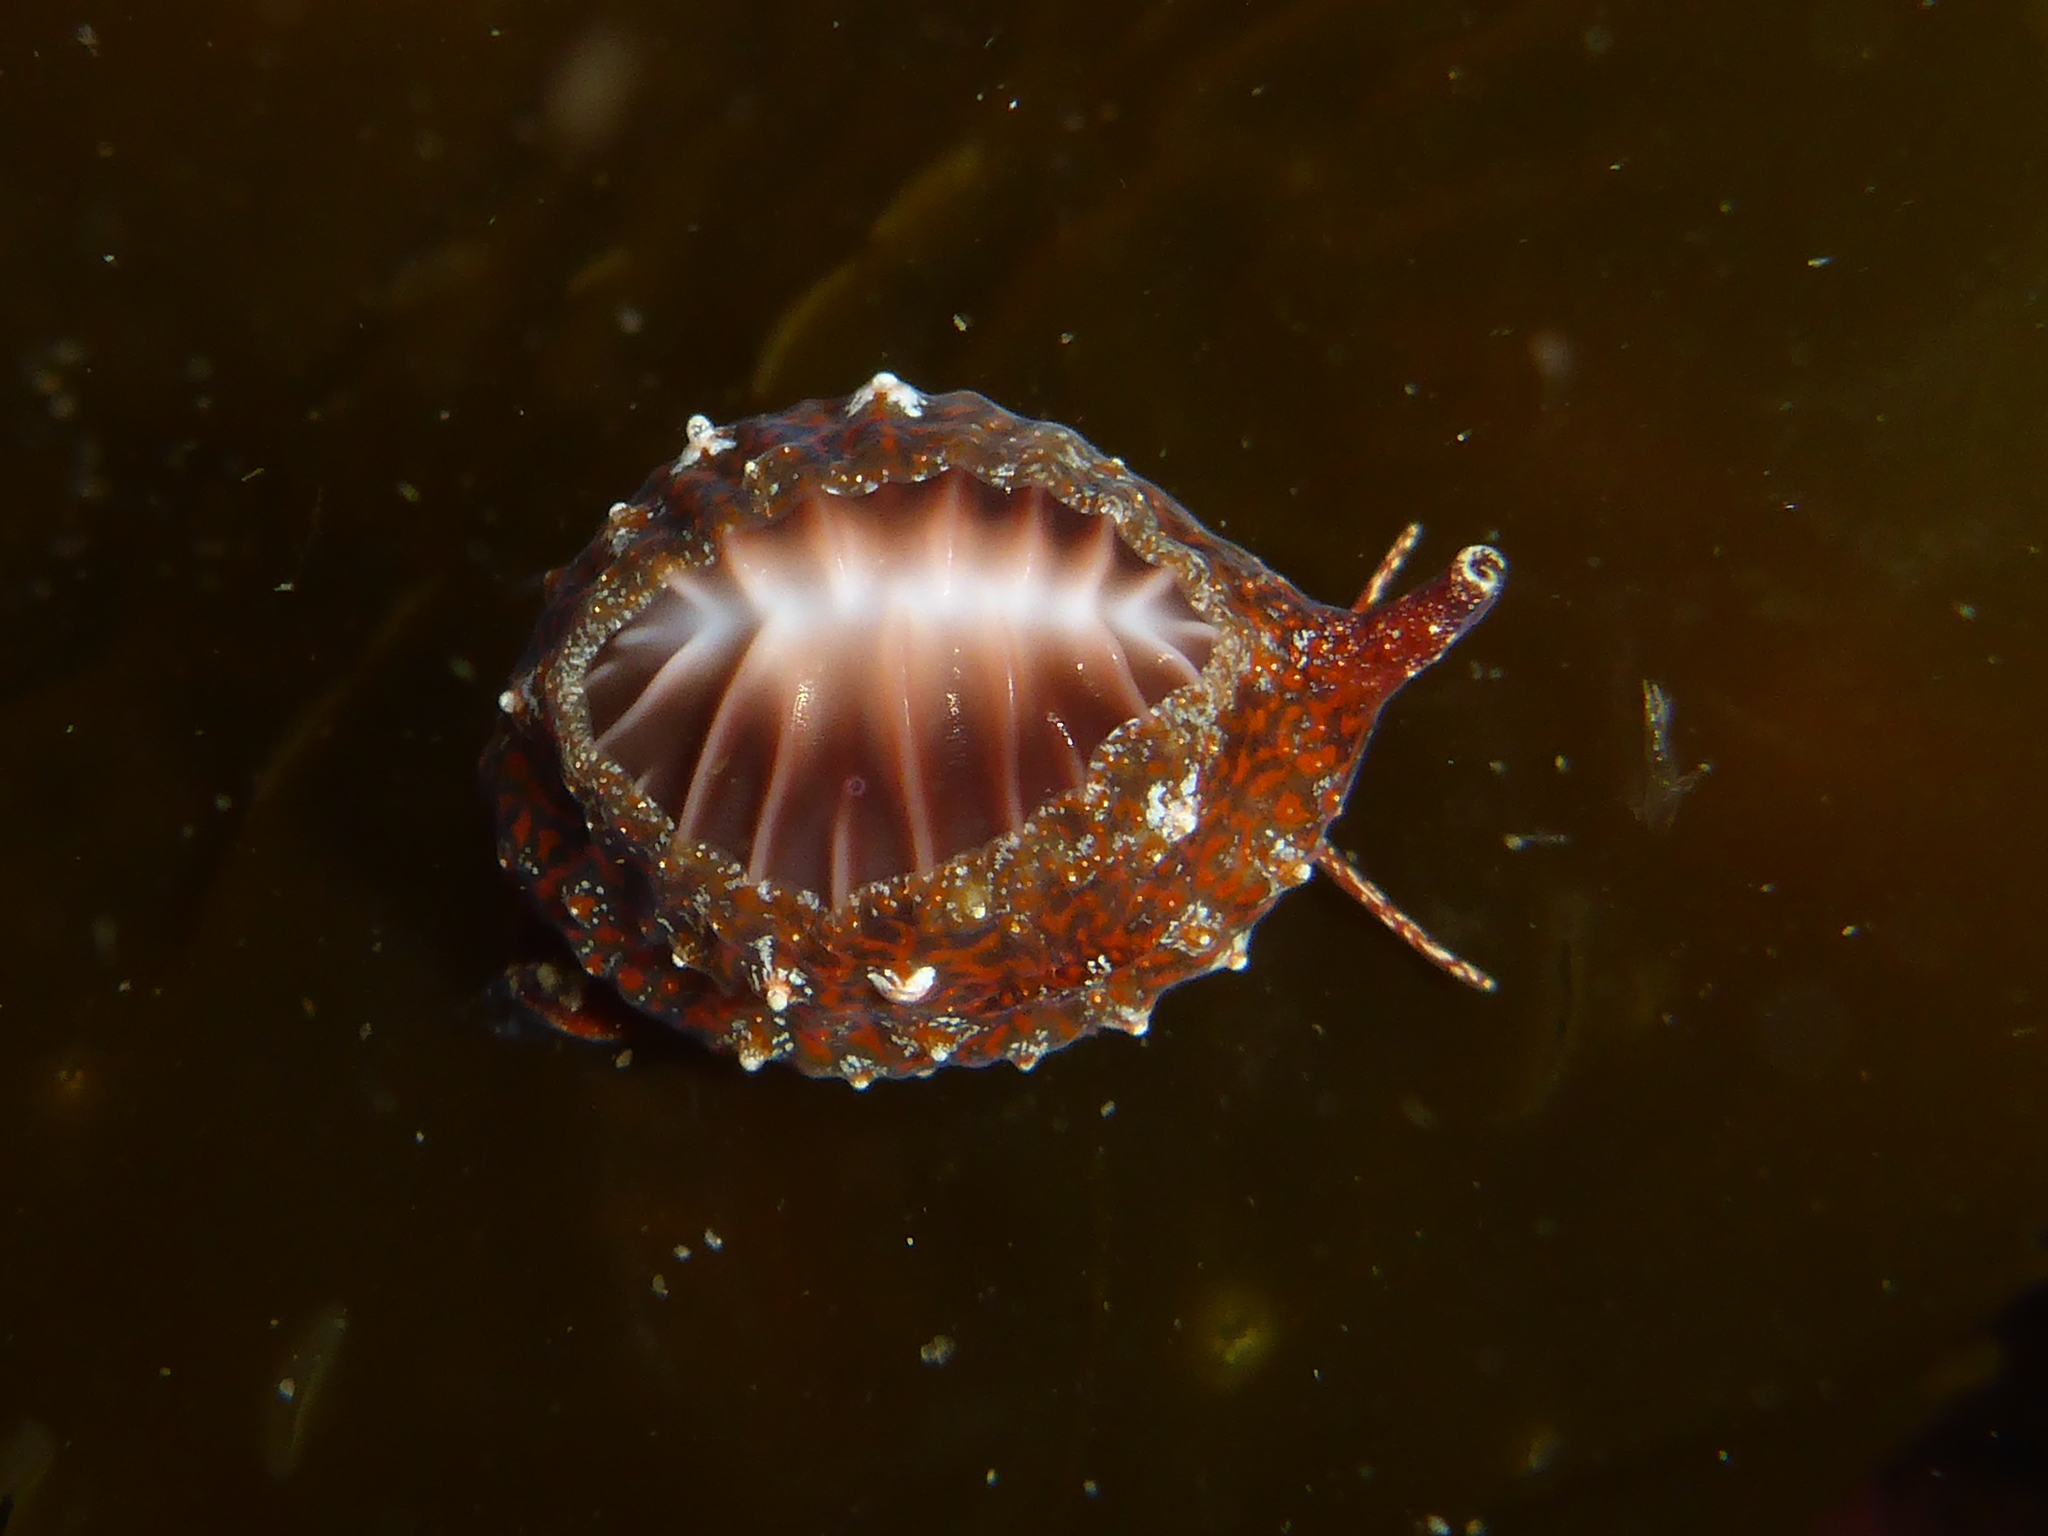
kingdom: Animalia
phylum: Mollusca
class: Gastropoda
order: Littorinimorpha
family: Triviidae
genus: Pseudopusula
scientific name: Pseudopusula californiana
